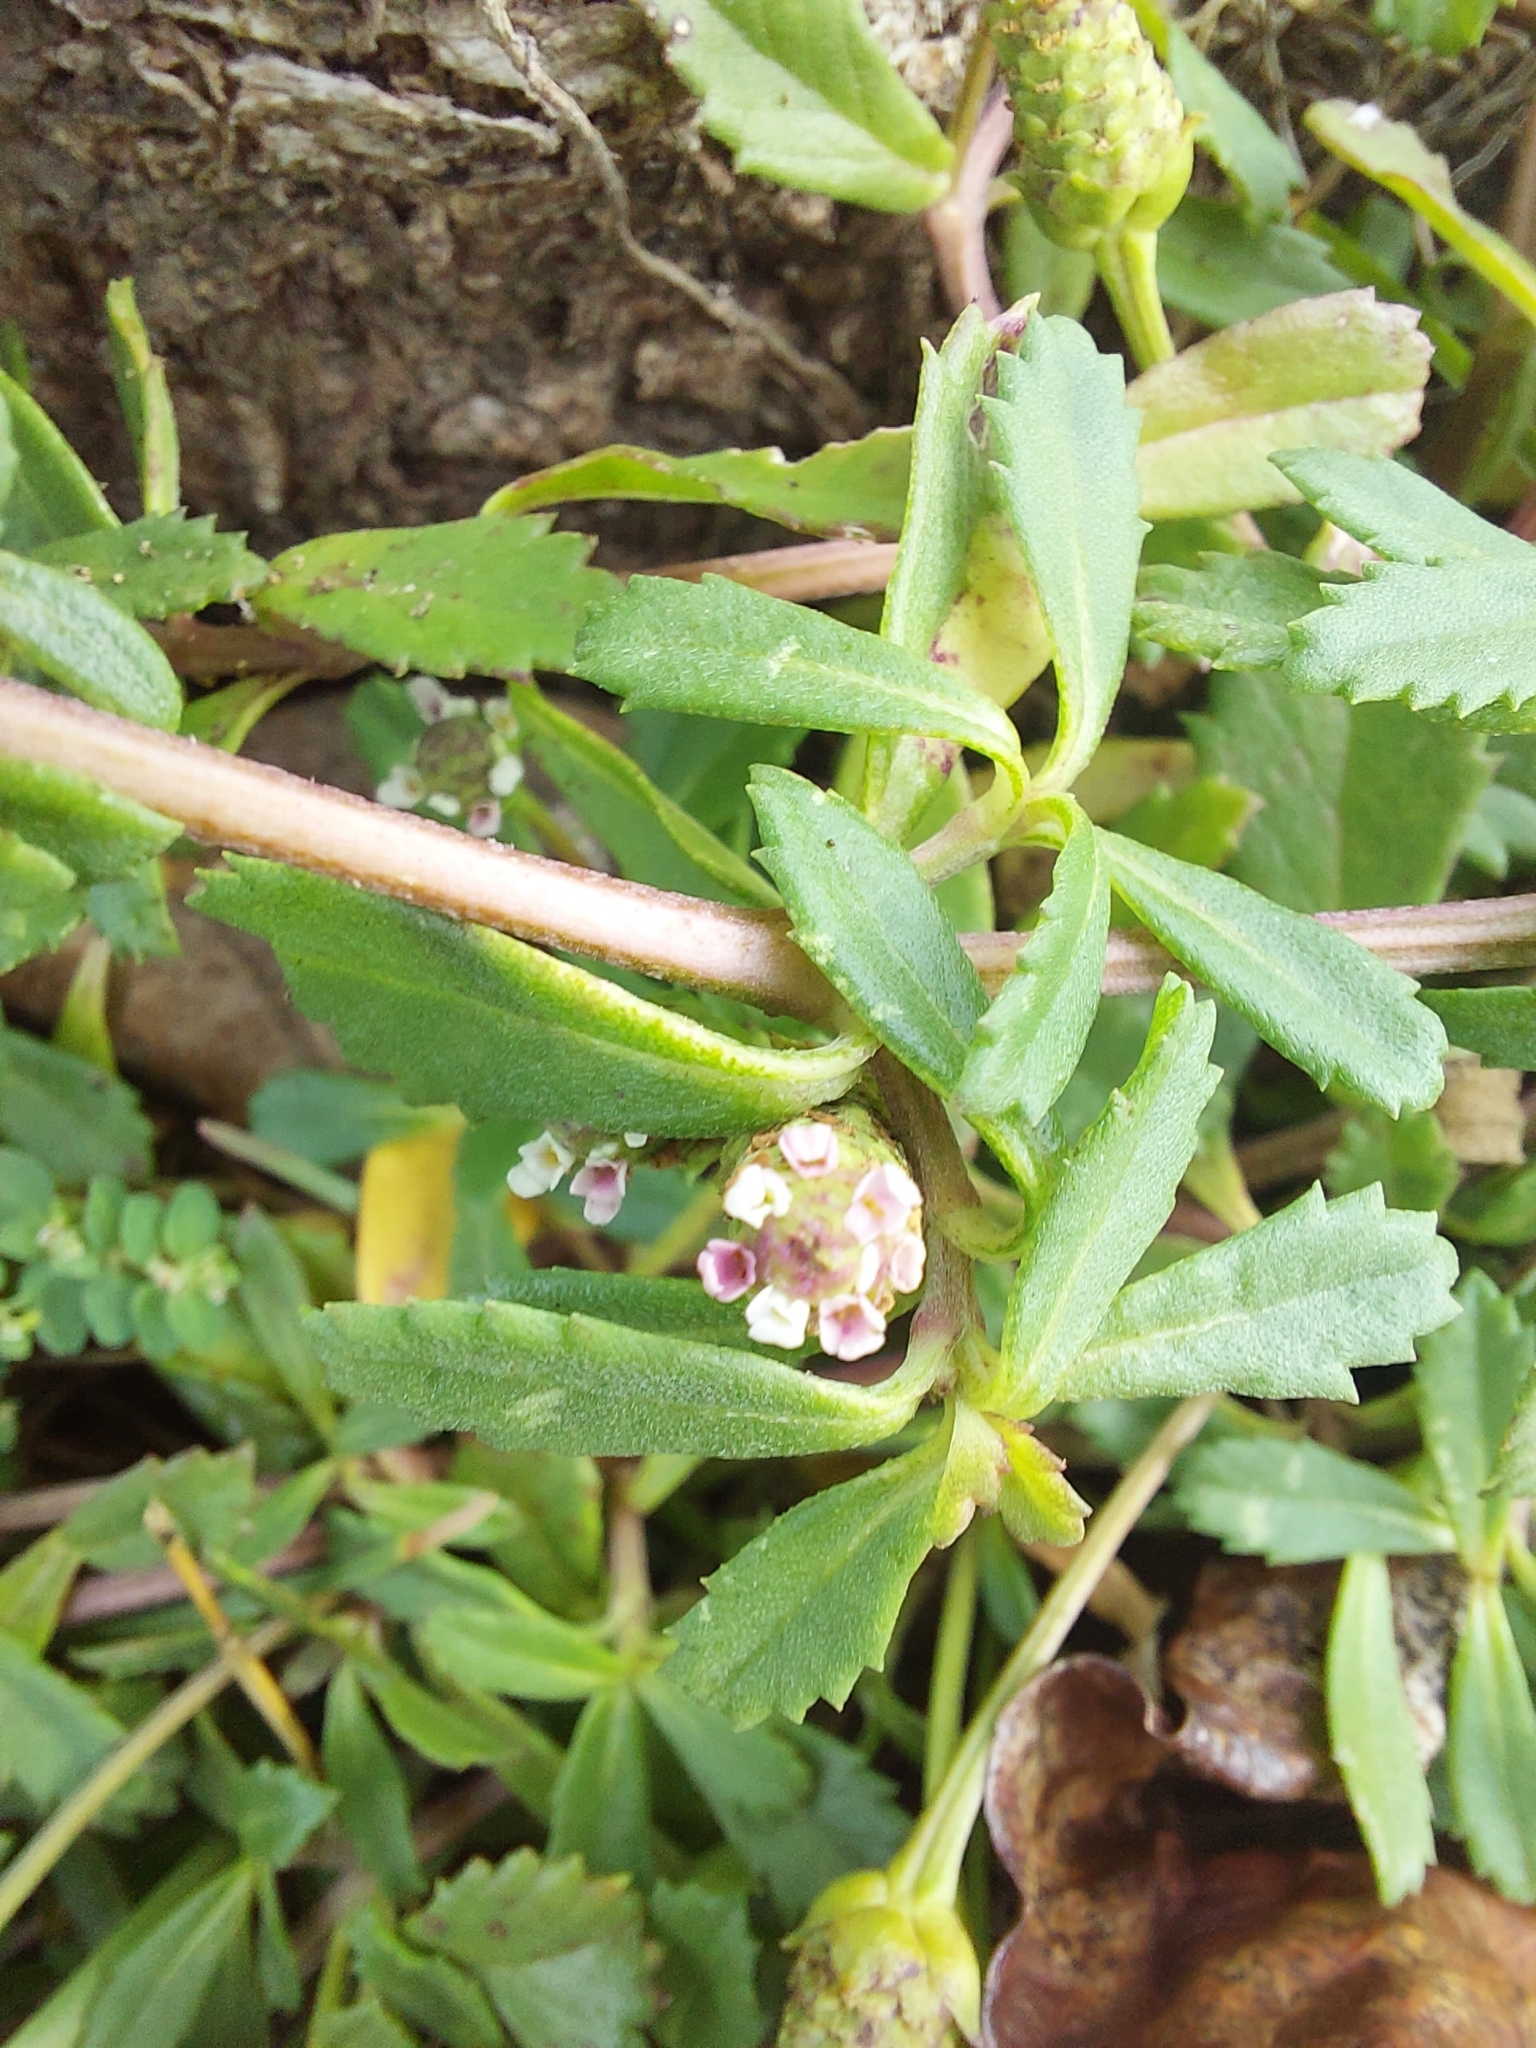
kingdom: Plantae
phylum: Tracheophyta
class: Magnoliopsida
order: Lamiales
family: Verbenaceae
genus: Phyla
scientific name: Phyla nodiflora
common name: Frogfruit
